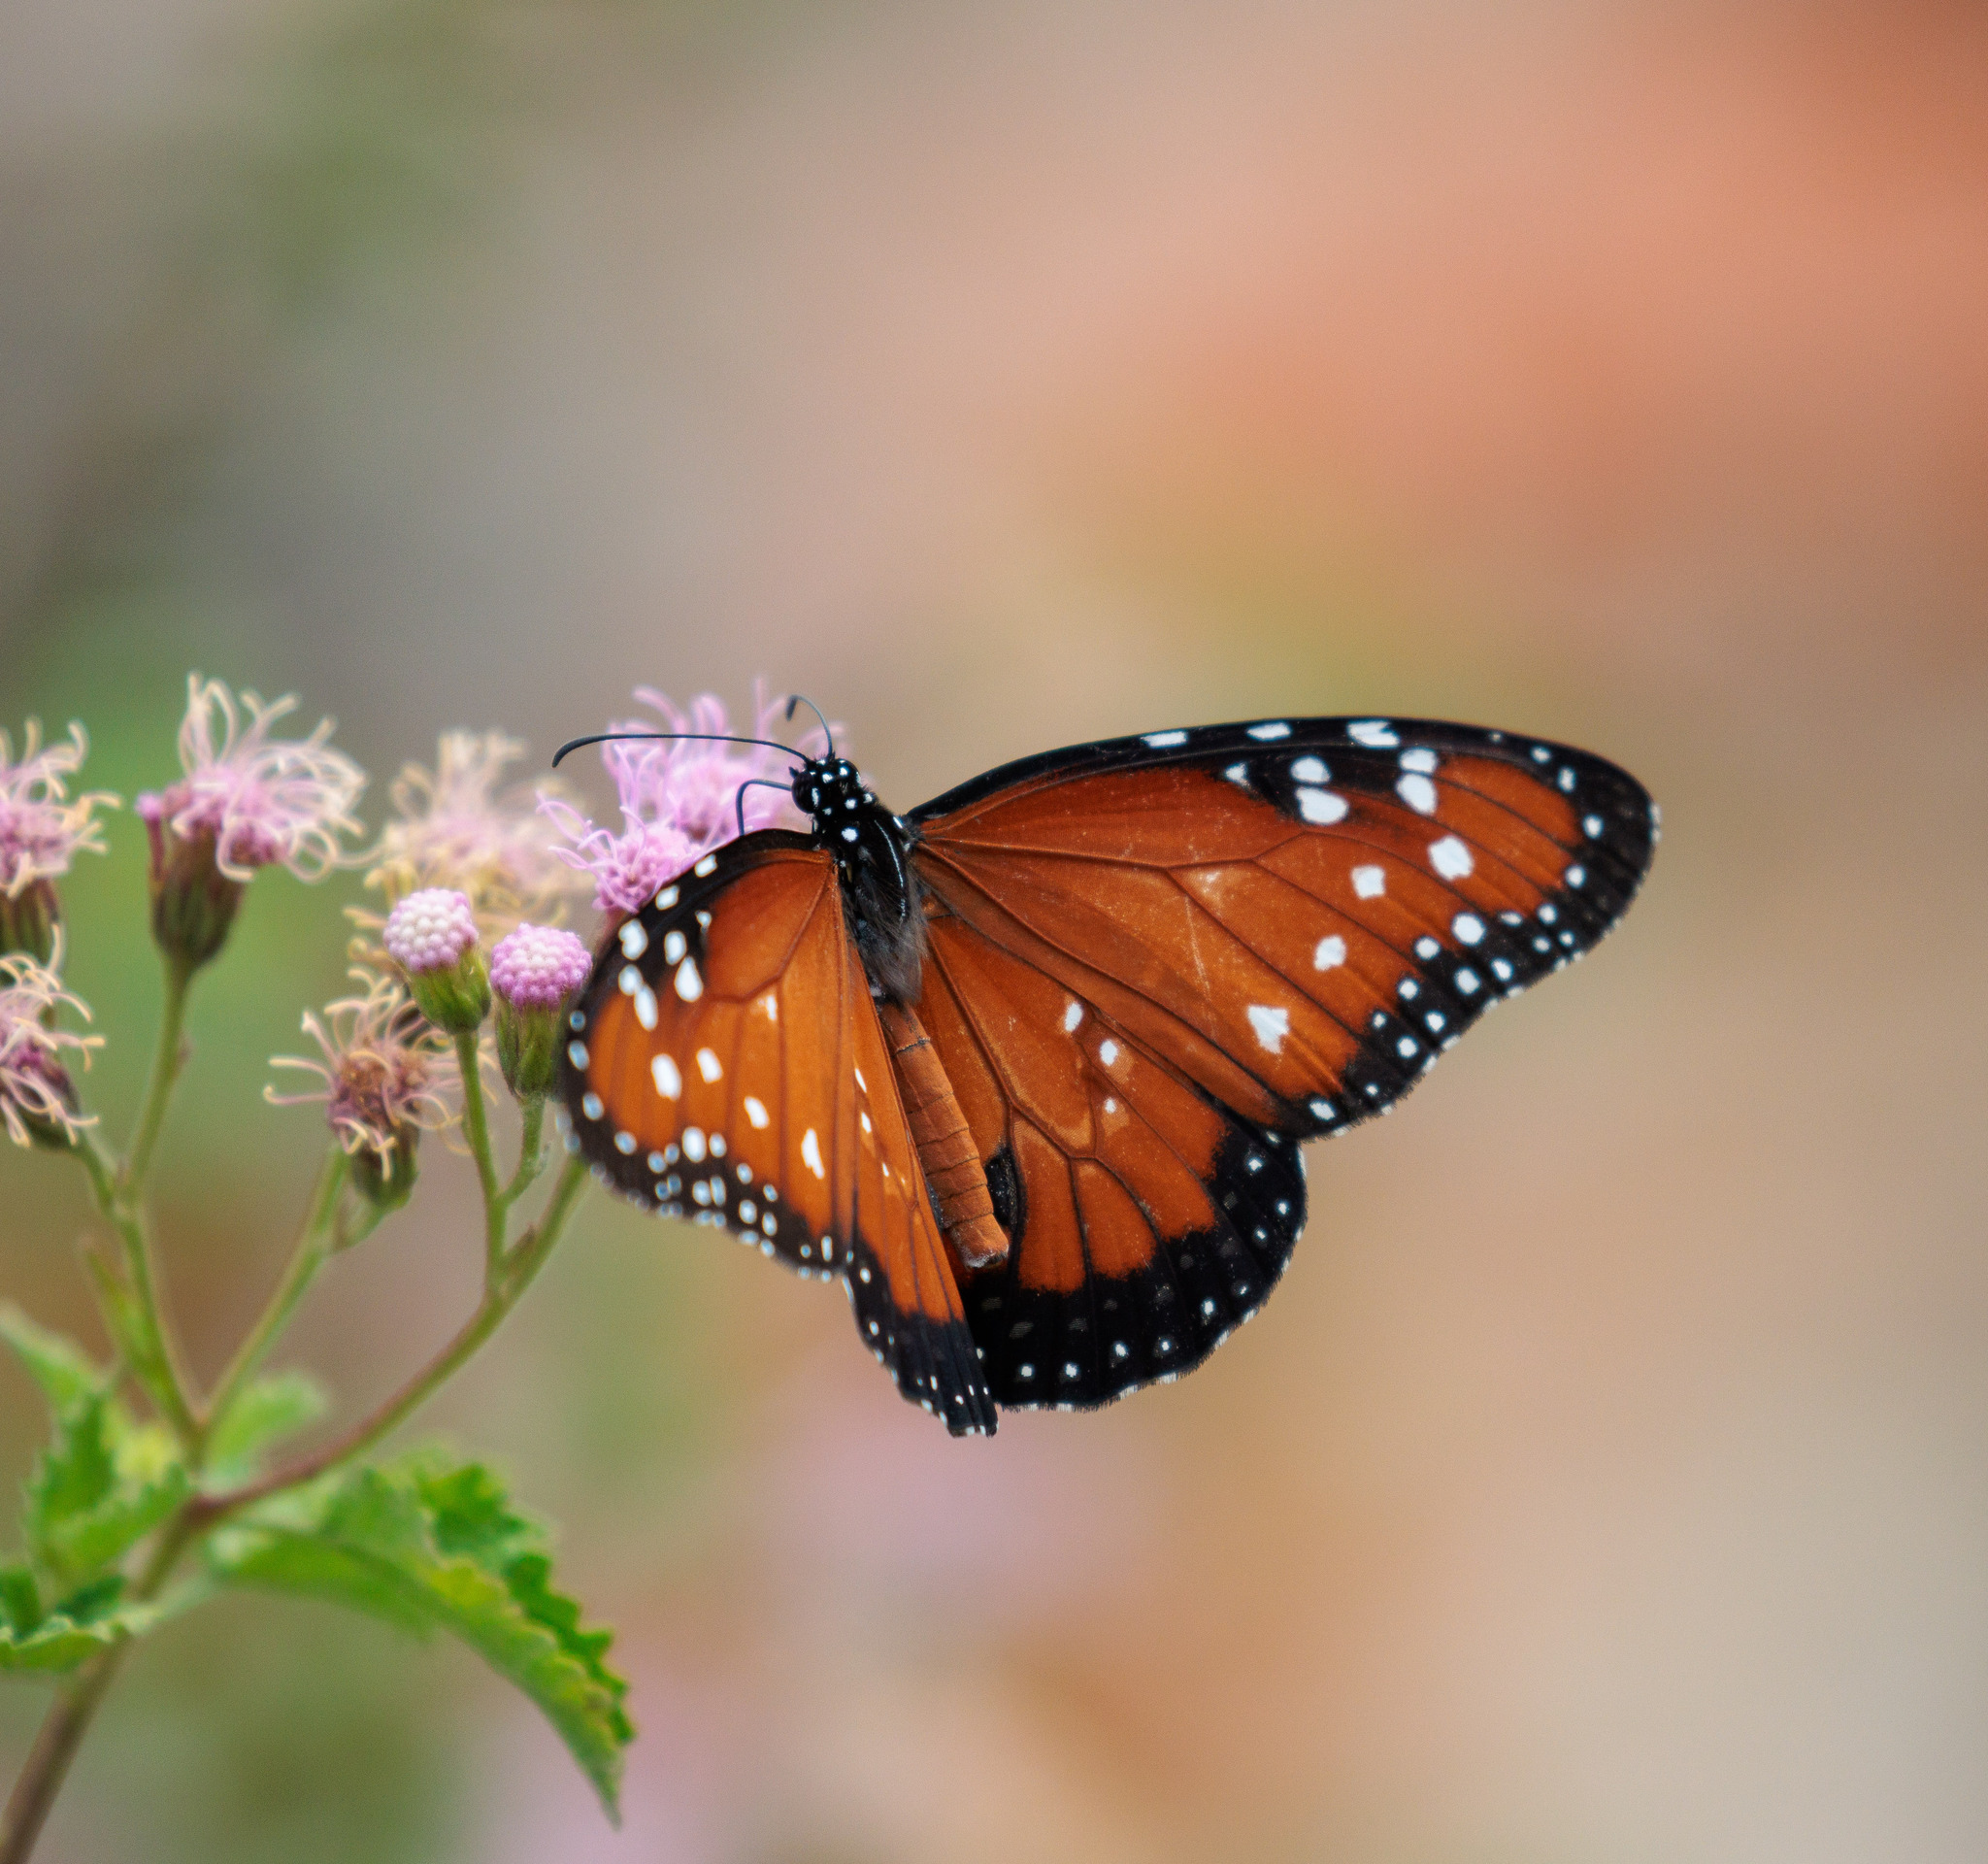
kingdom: Animalia
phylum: Arthropoda
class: Insecta
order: Lepidoptera
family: Nymphalidae
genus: Danaus
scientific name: Danaus gilippus
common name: Queen
